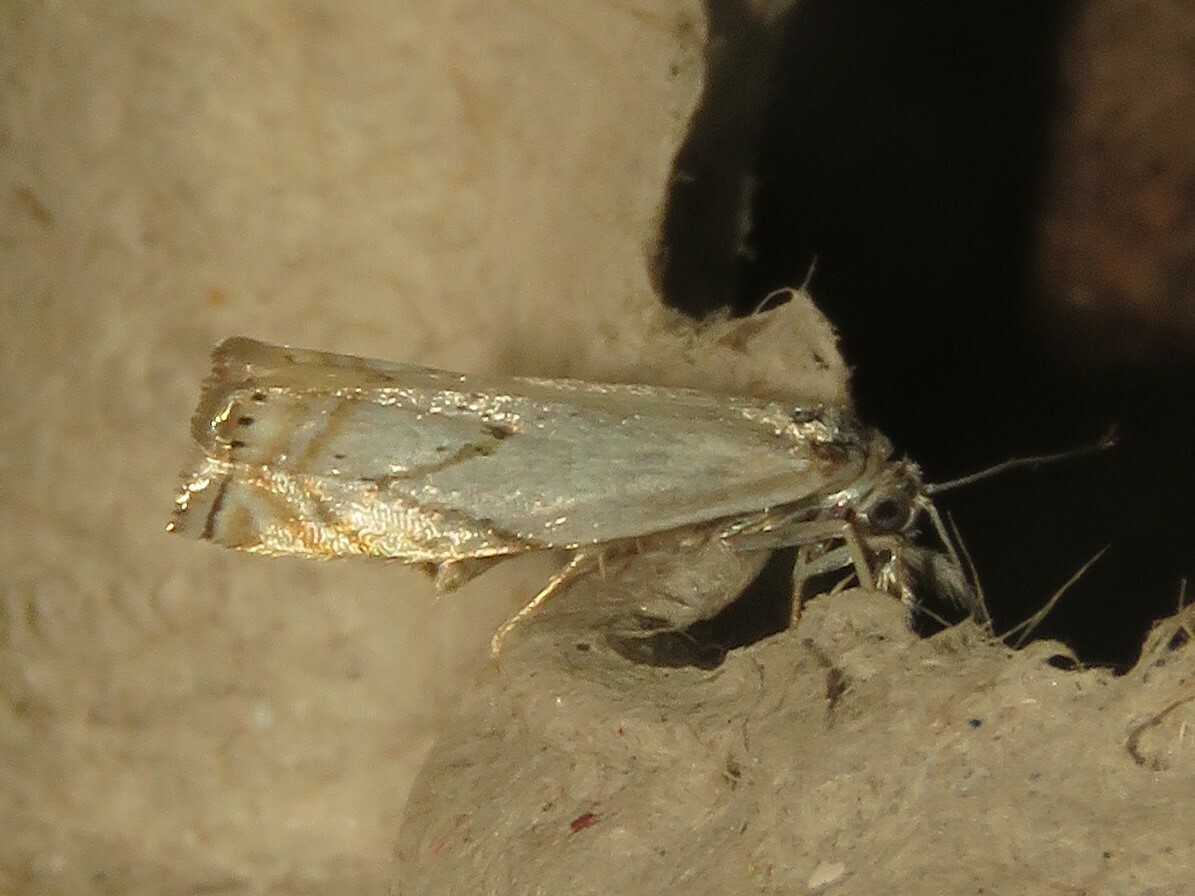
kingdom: Animalia
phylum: Arthropoda
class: Insecta
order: Lepidoptera
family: Crambidae
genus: Crambus
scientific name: Crambus albellus
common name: Small white grass-veneer
